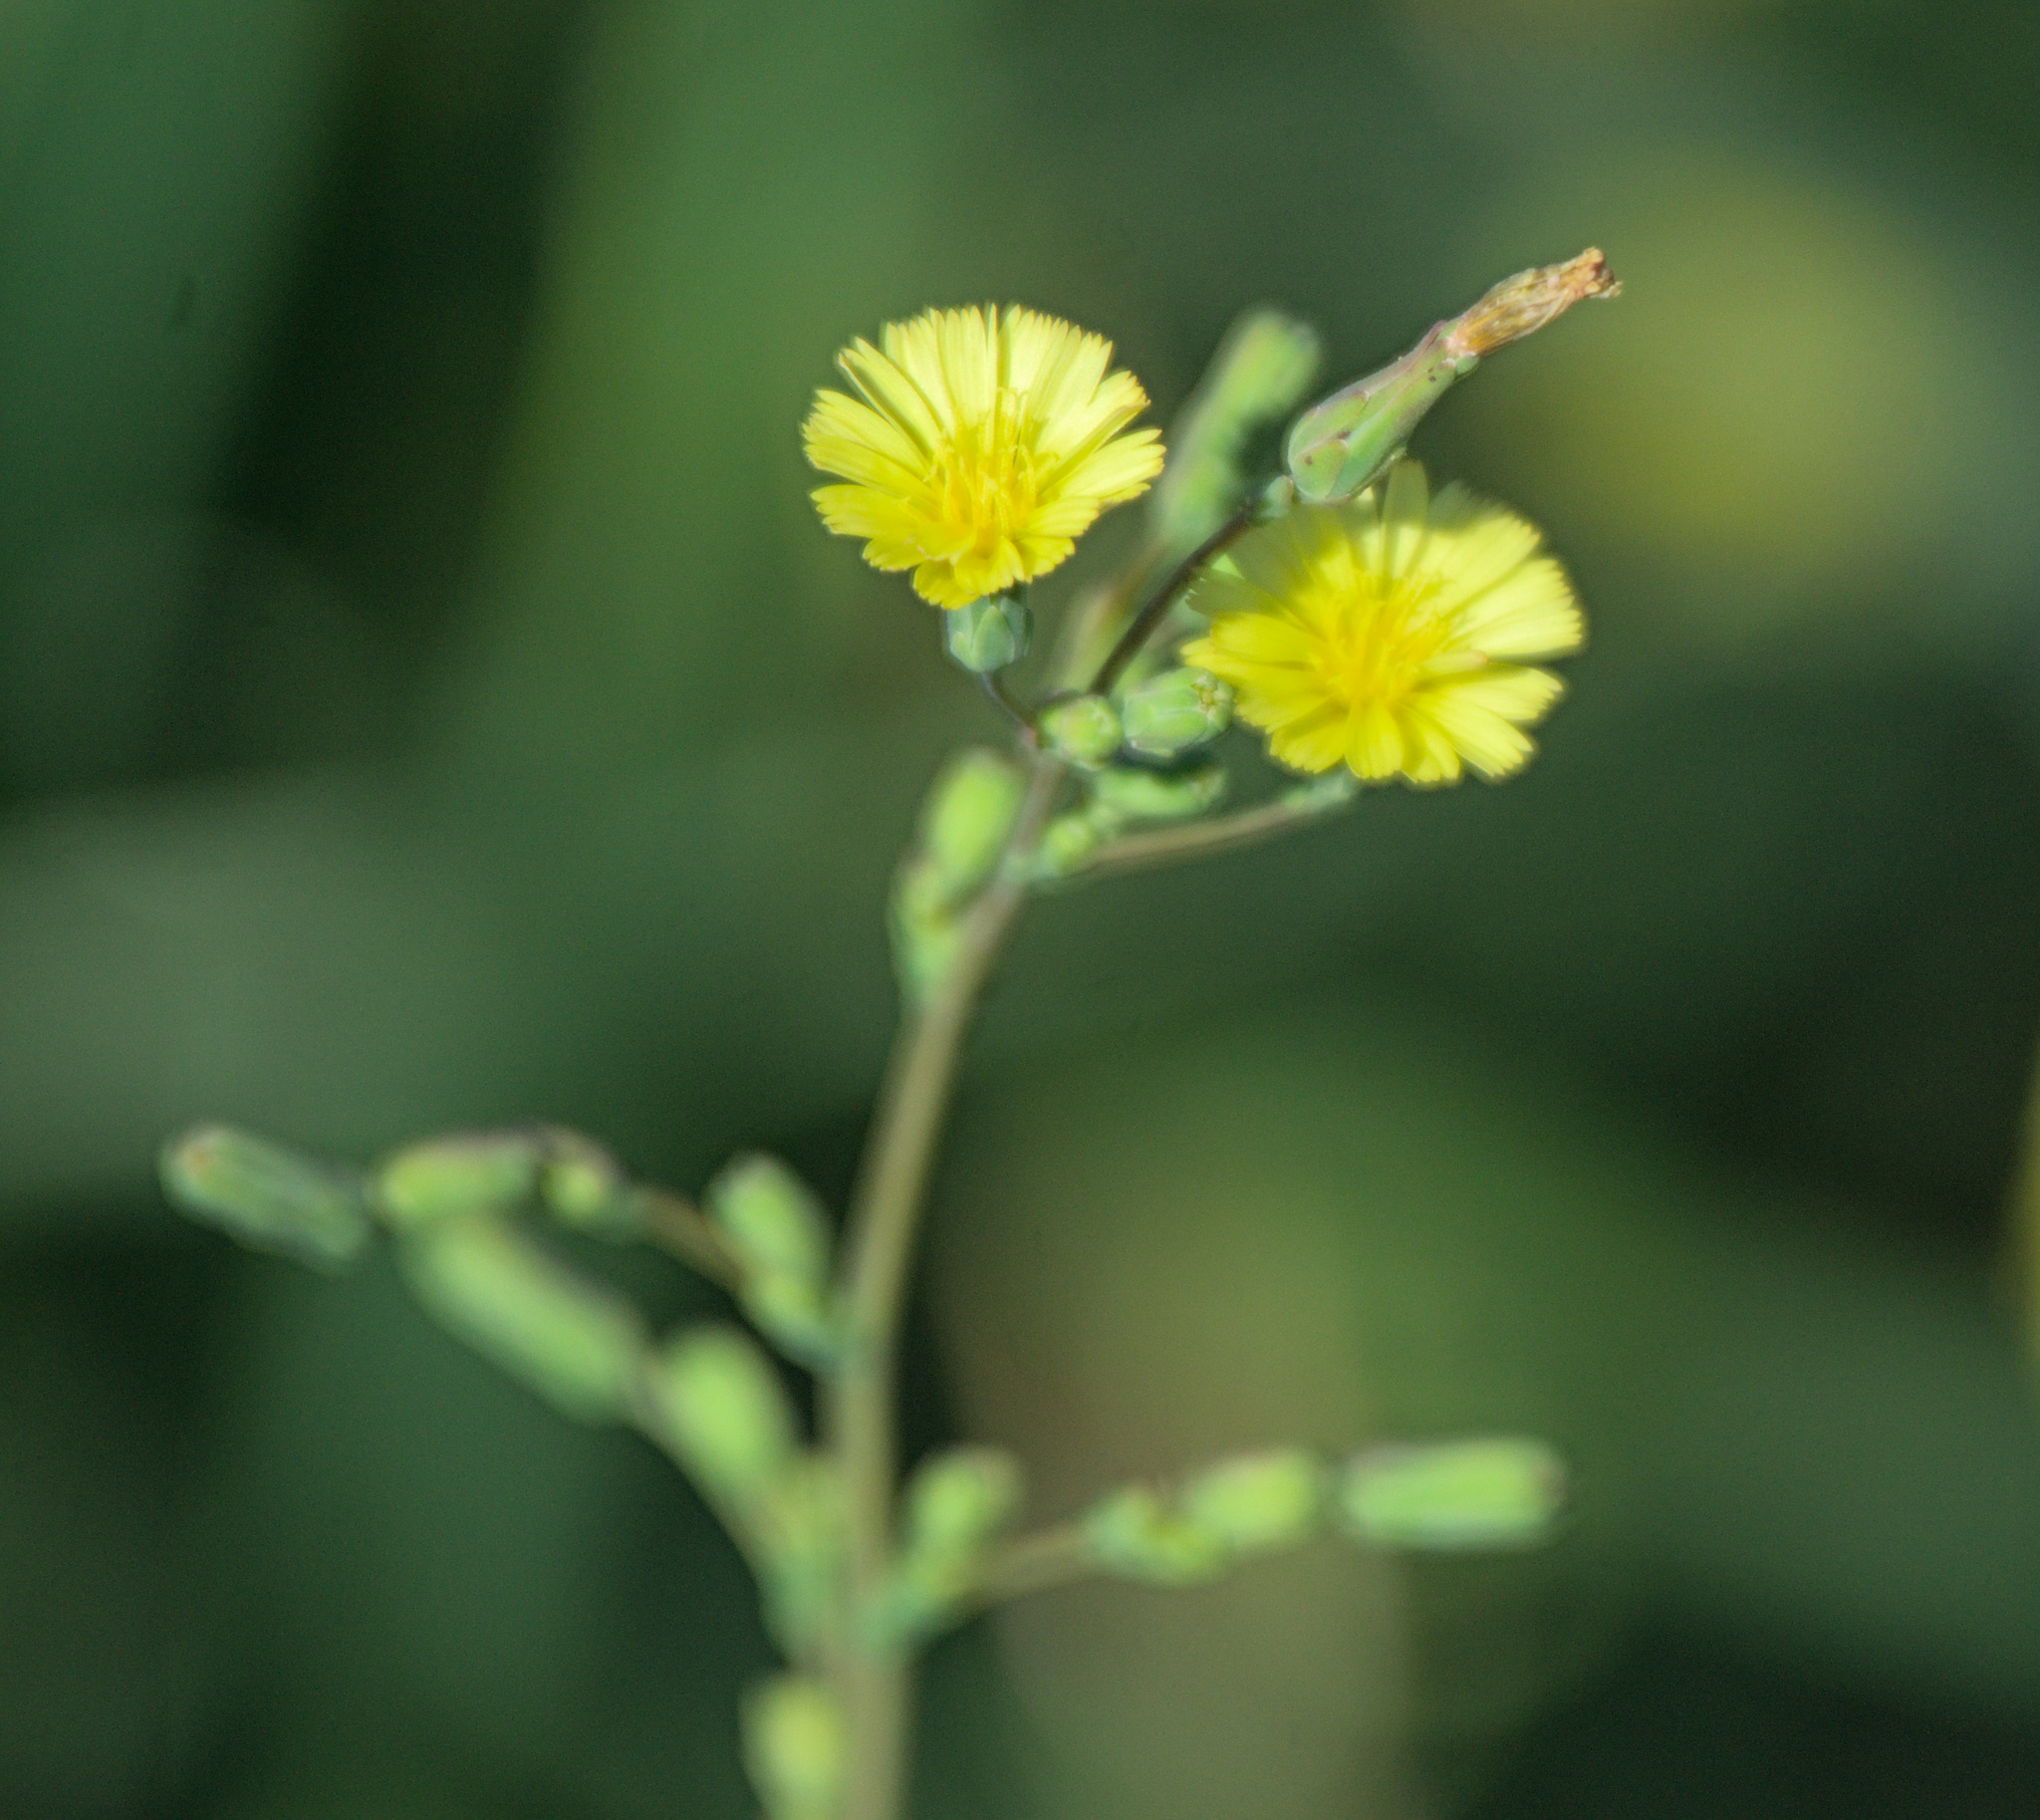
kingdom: Plantae
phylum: Tracheophyta
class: Magnoliopsida
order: Asterales
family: Asteraceae
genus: Lactuca
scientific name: Lactuca serriola
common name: Prickly lettuce
